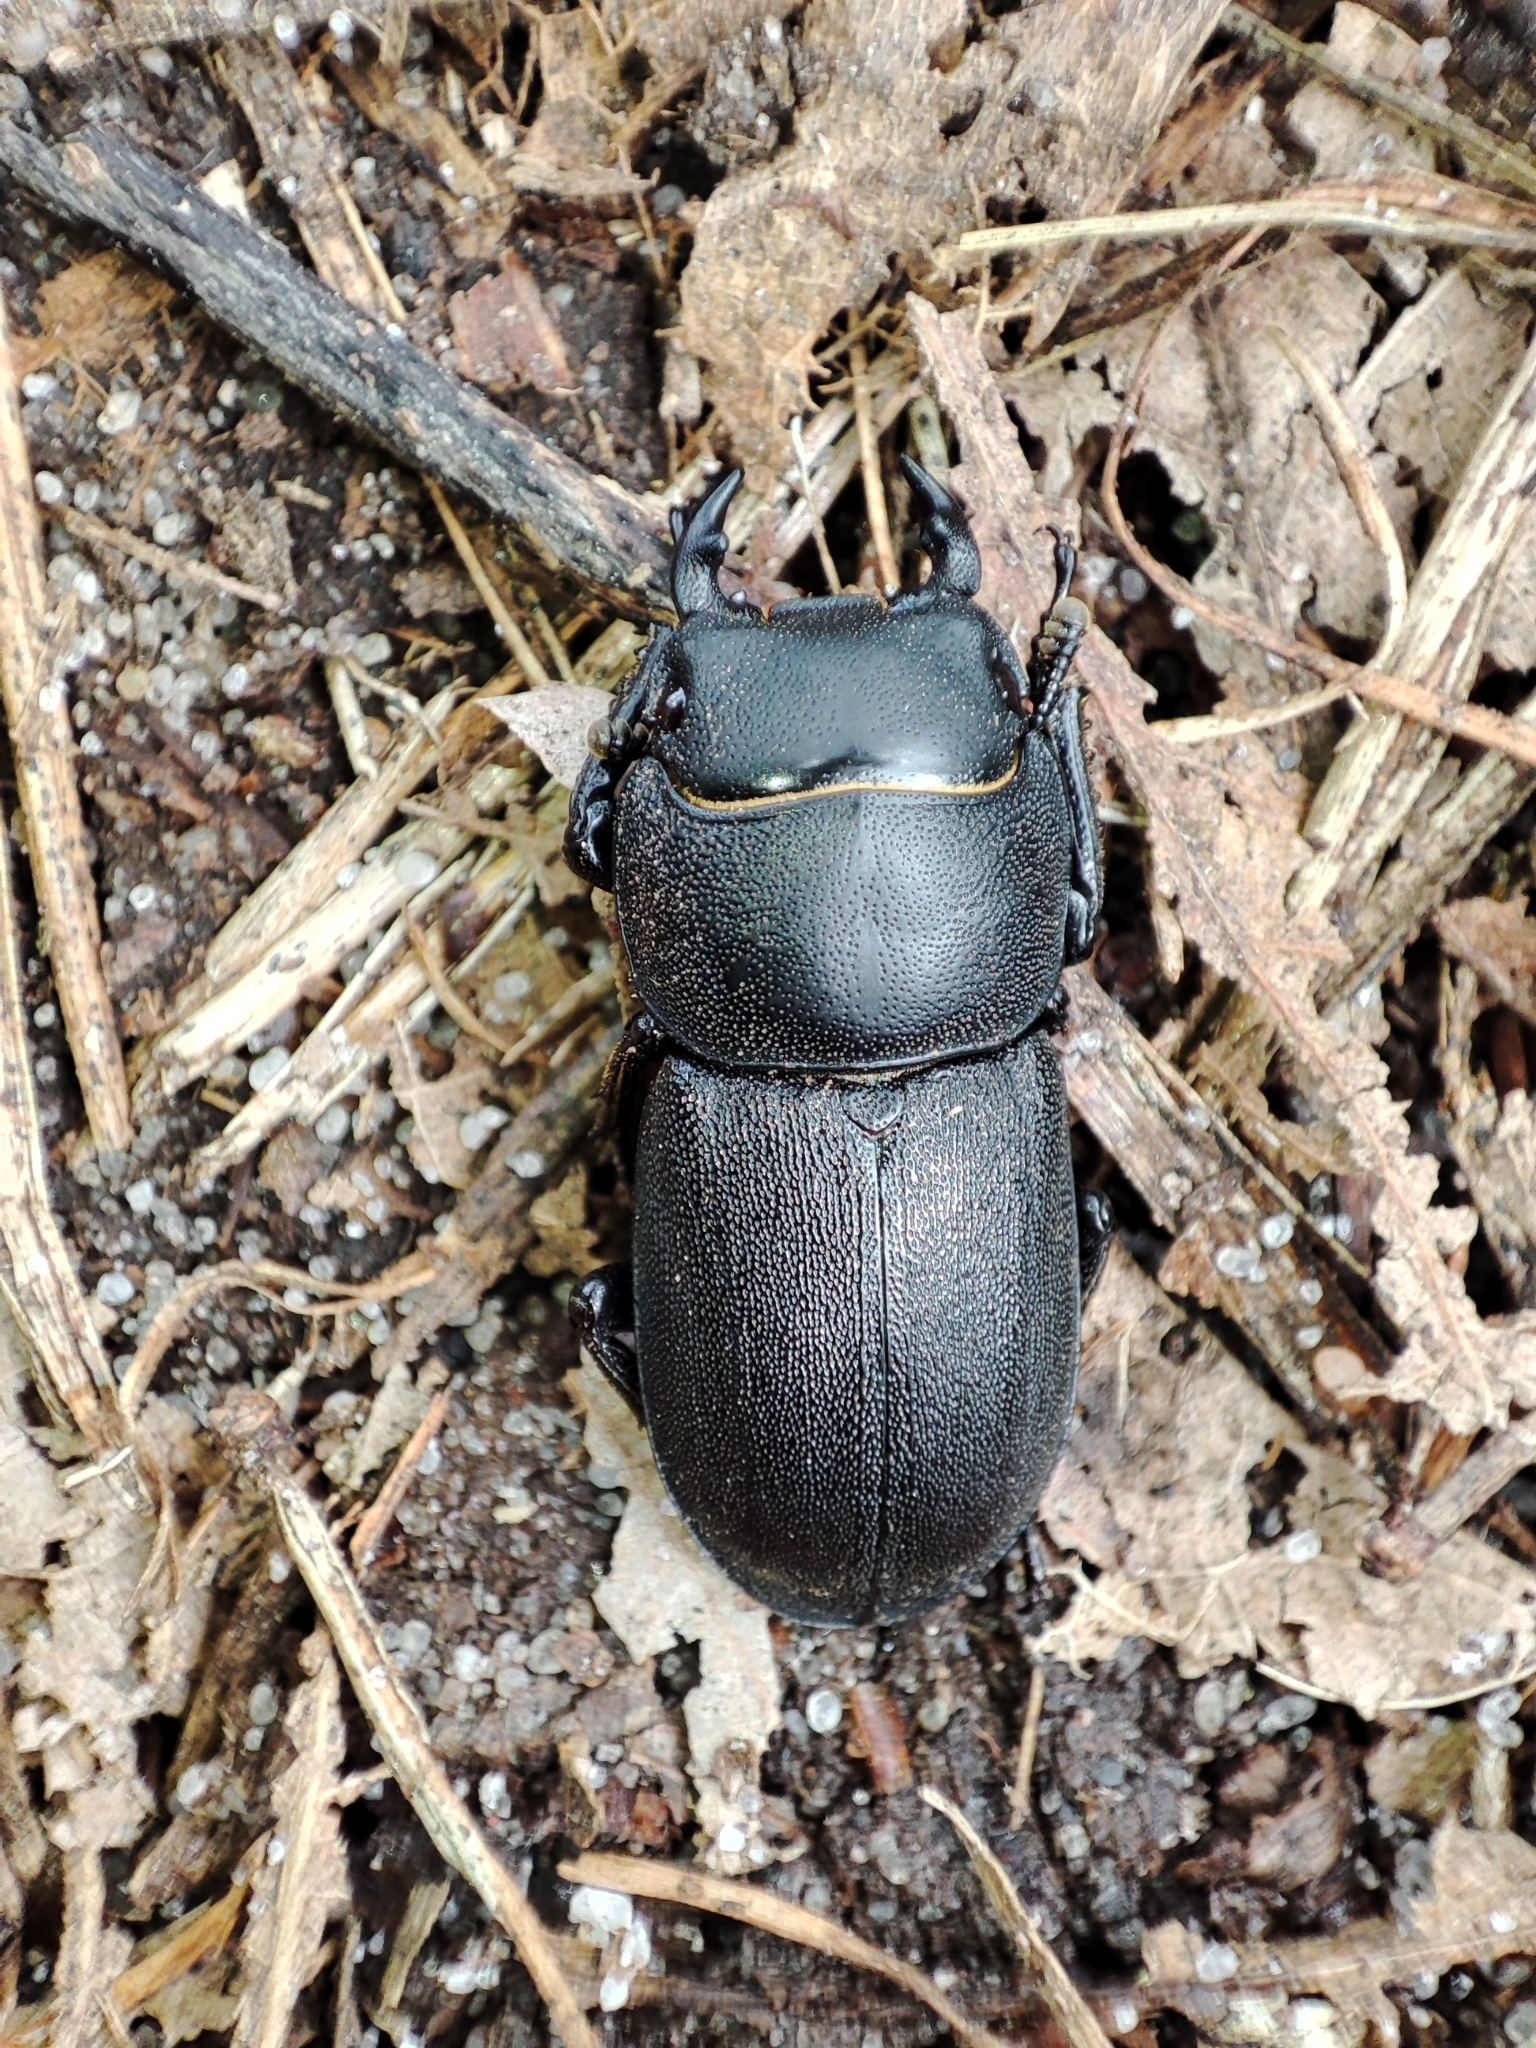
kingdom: Animalia
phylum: Arthropoda
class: Insecta
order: Coleoptera
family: Lucanidae
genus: Dorcus
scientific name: Dorcus parallelipipedus
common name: Lesser stag beetle
